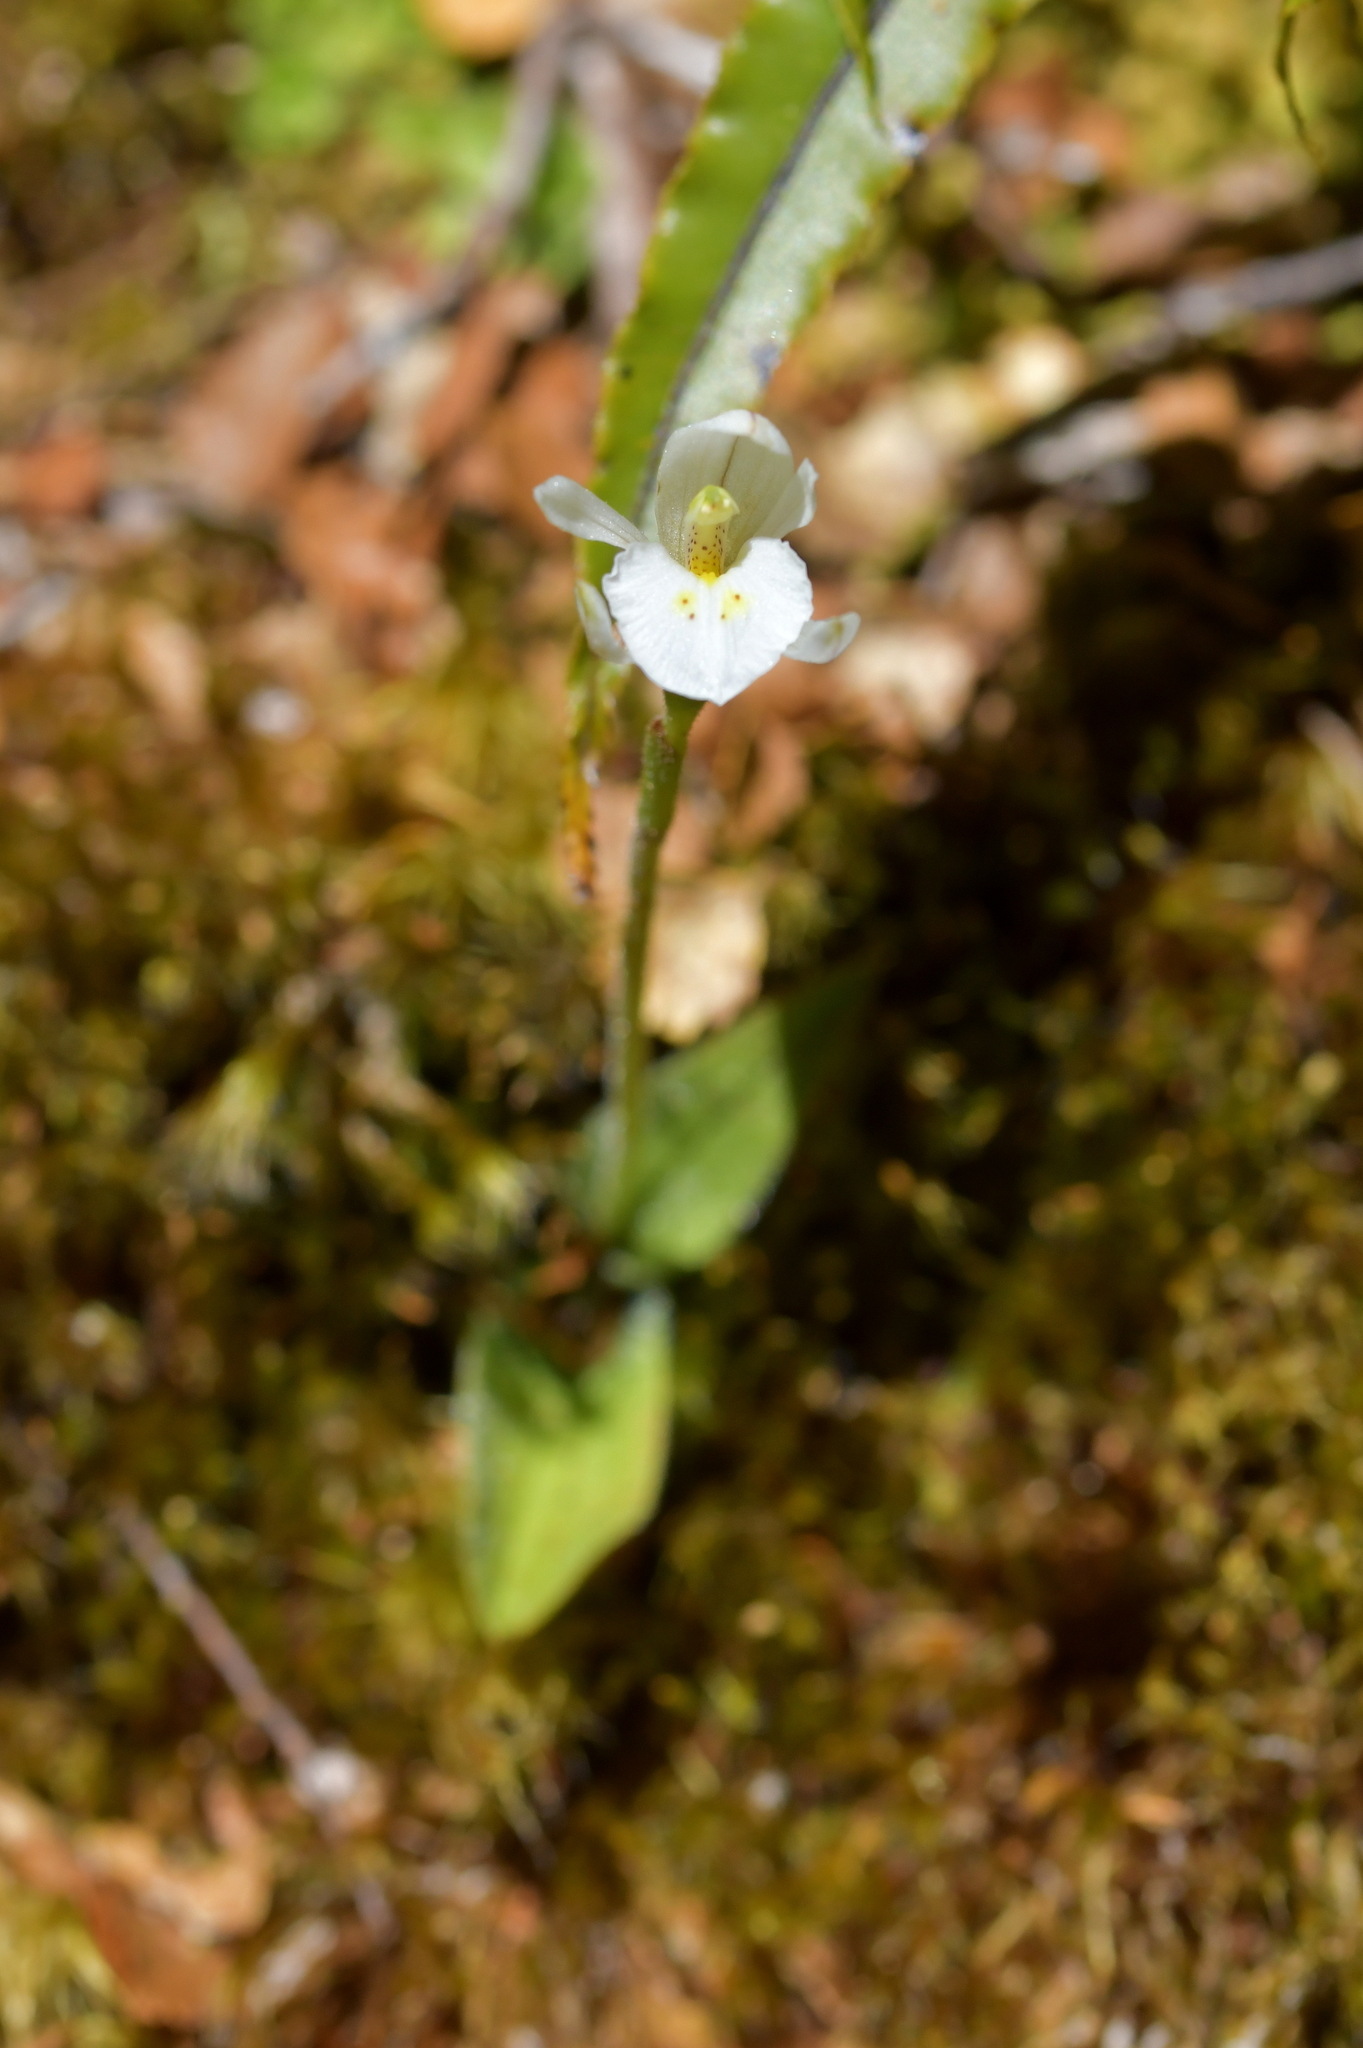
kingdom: Plantae
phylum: Tracheophyta
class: Liliopsida
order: Asparagales
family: Orchidaceae
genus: Aporostylis
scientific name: Aporostylis bifolia
